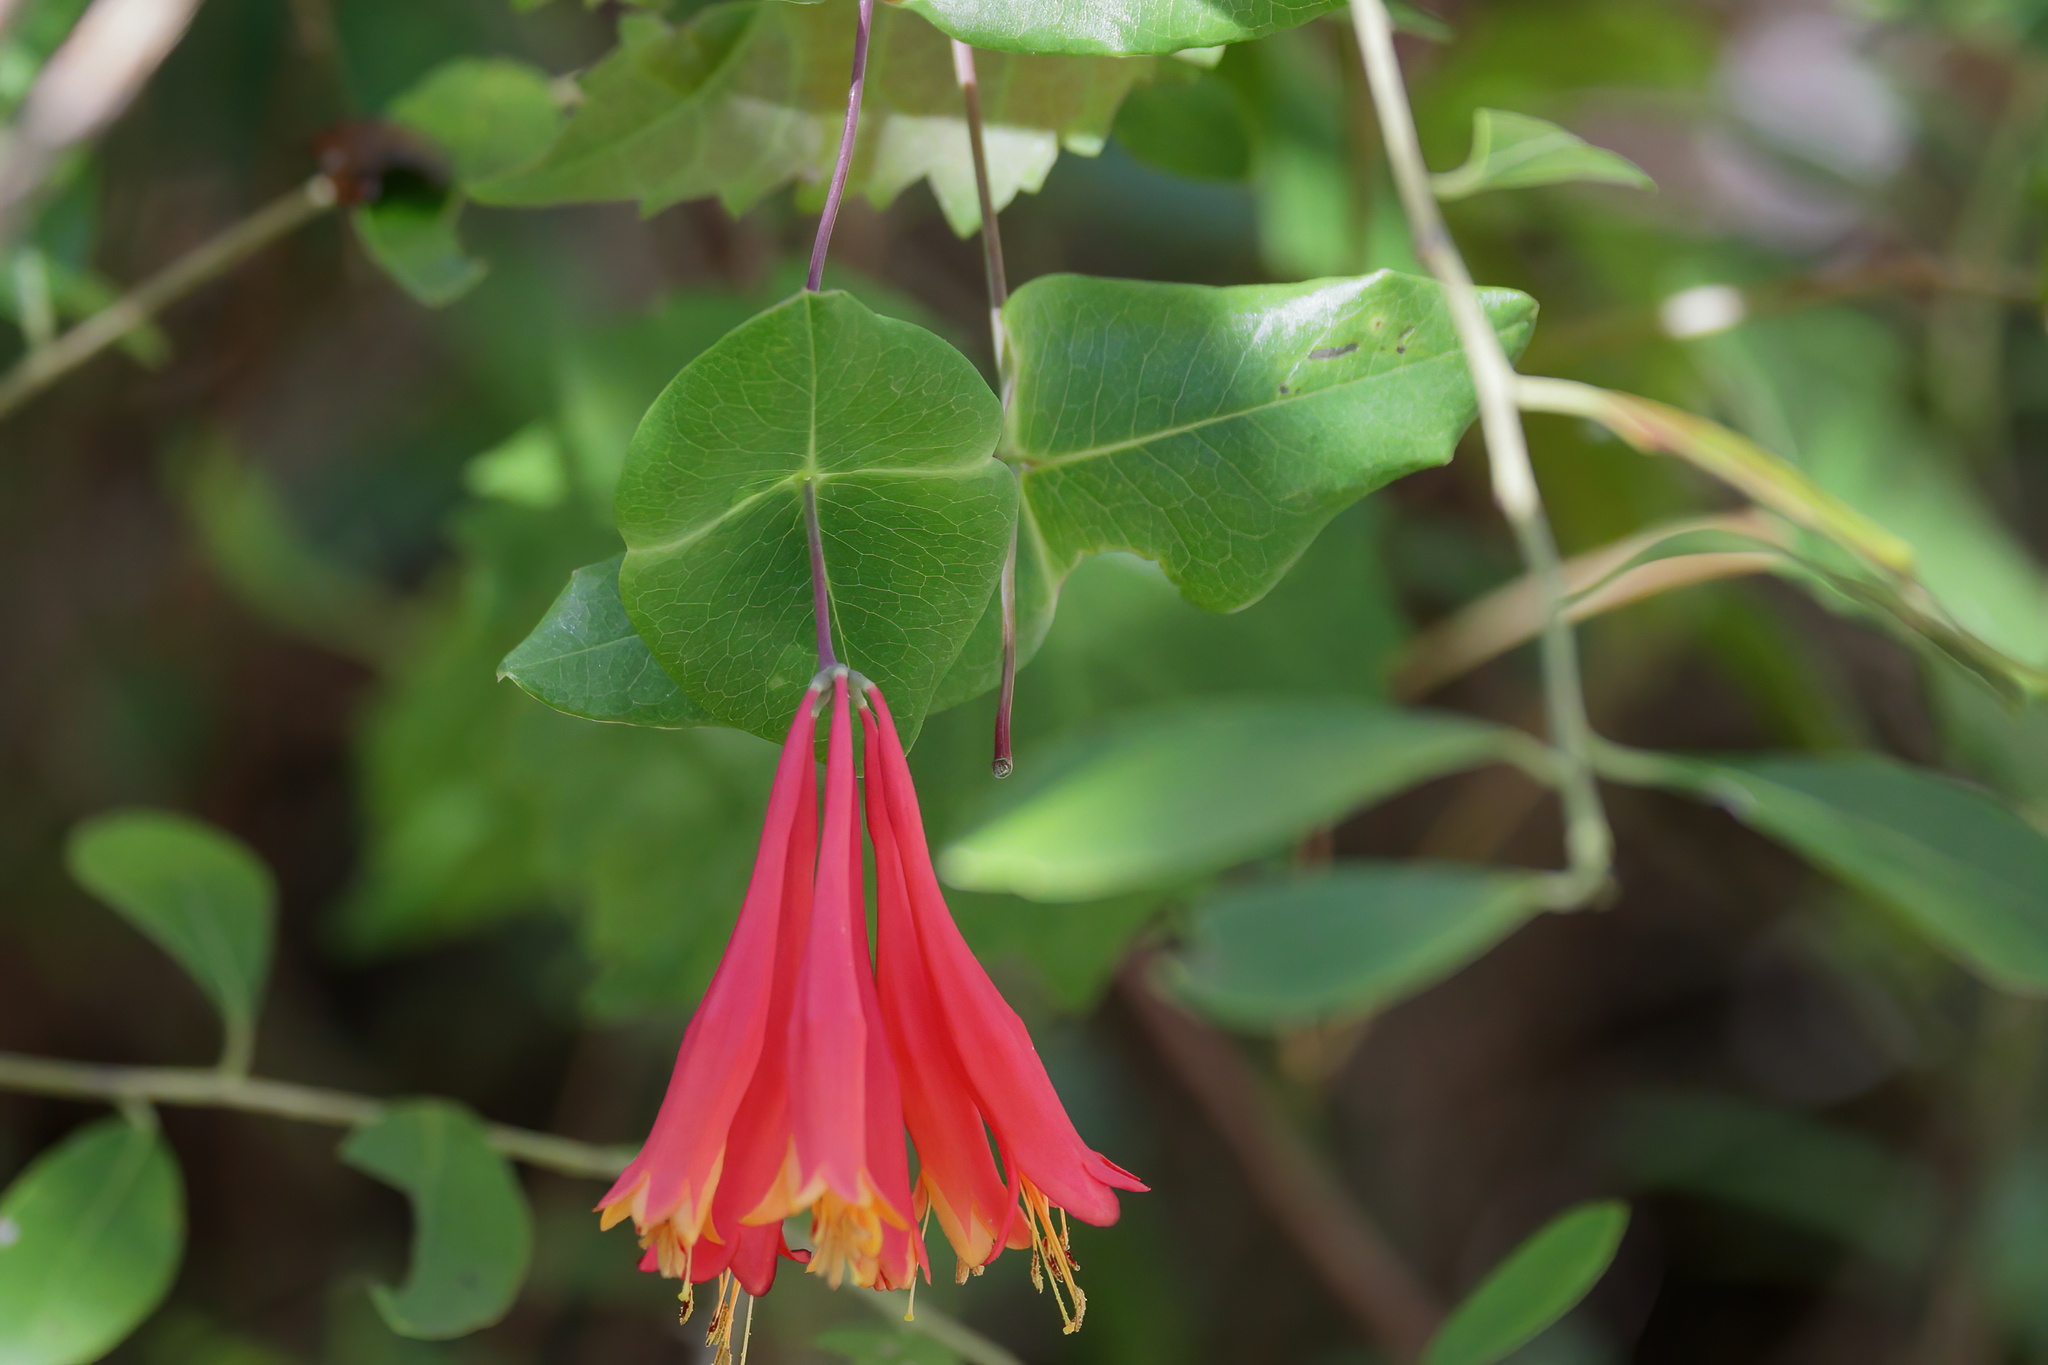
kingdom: Plantae
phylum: Tracheophyta
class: Magnoliopsida
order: Dipsacales
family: Caprifoliaceae
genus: Lonicera
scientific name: Lonicera sempervirens
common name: Coral honeysuckle
